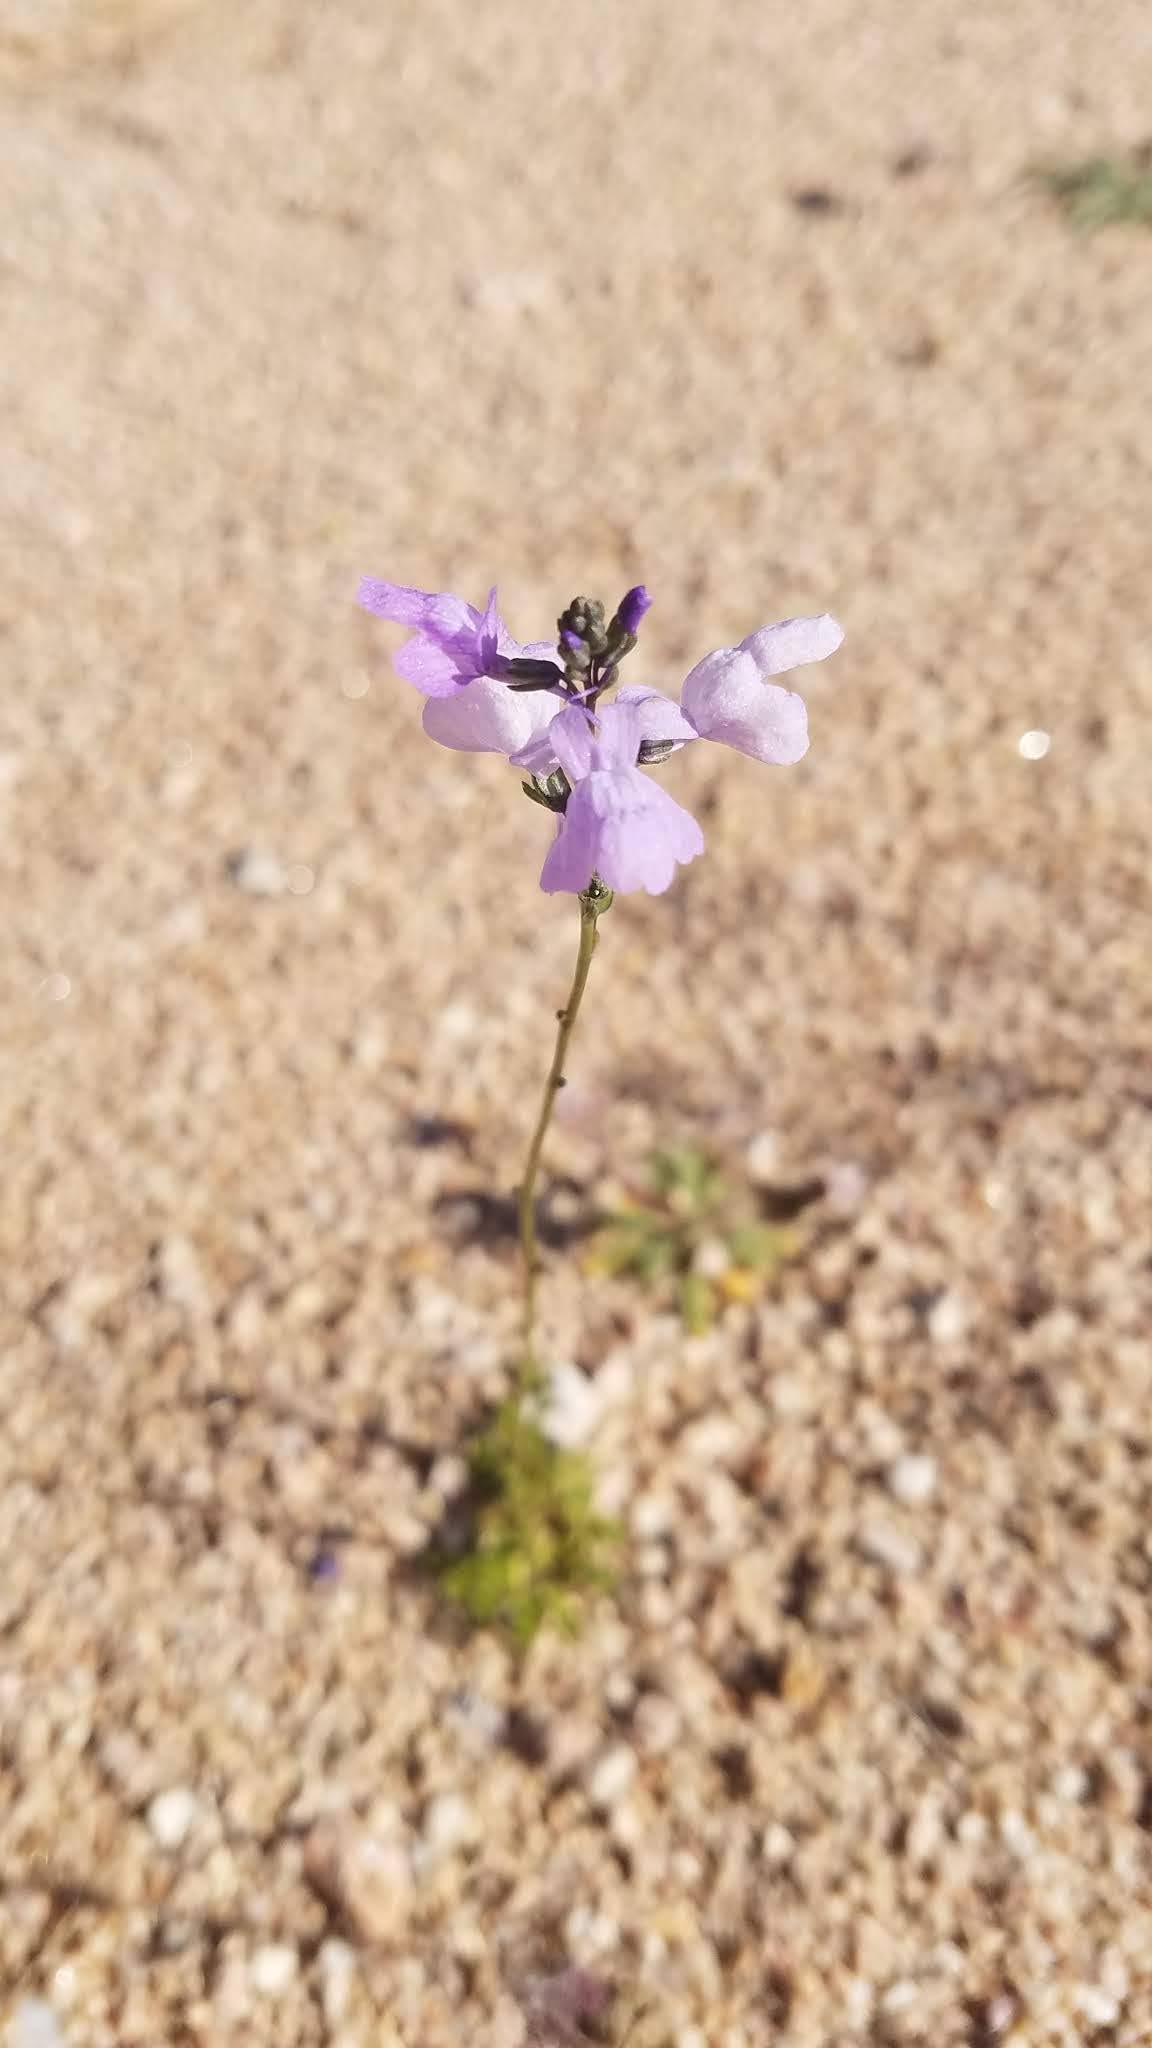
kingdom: Plantae
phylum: Tracheophyta
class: Magnoliopsida
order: Lamiales
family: Plantaginaceae
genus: Nuttallanthus
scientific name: Nuttallanthus texanus
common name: Texas toadflax
